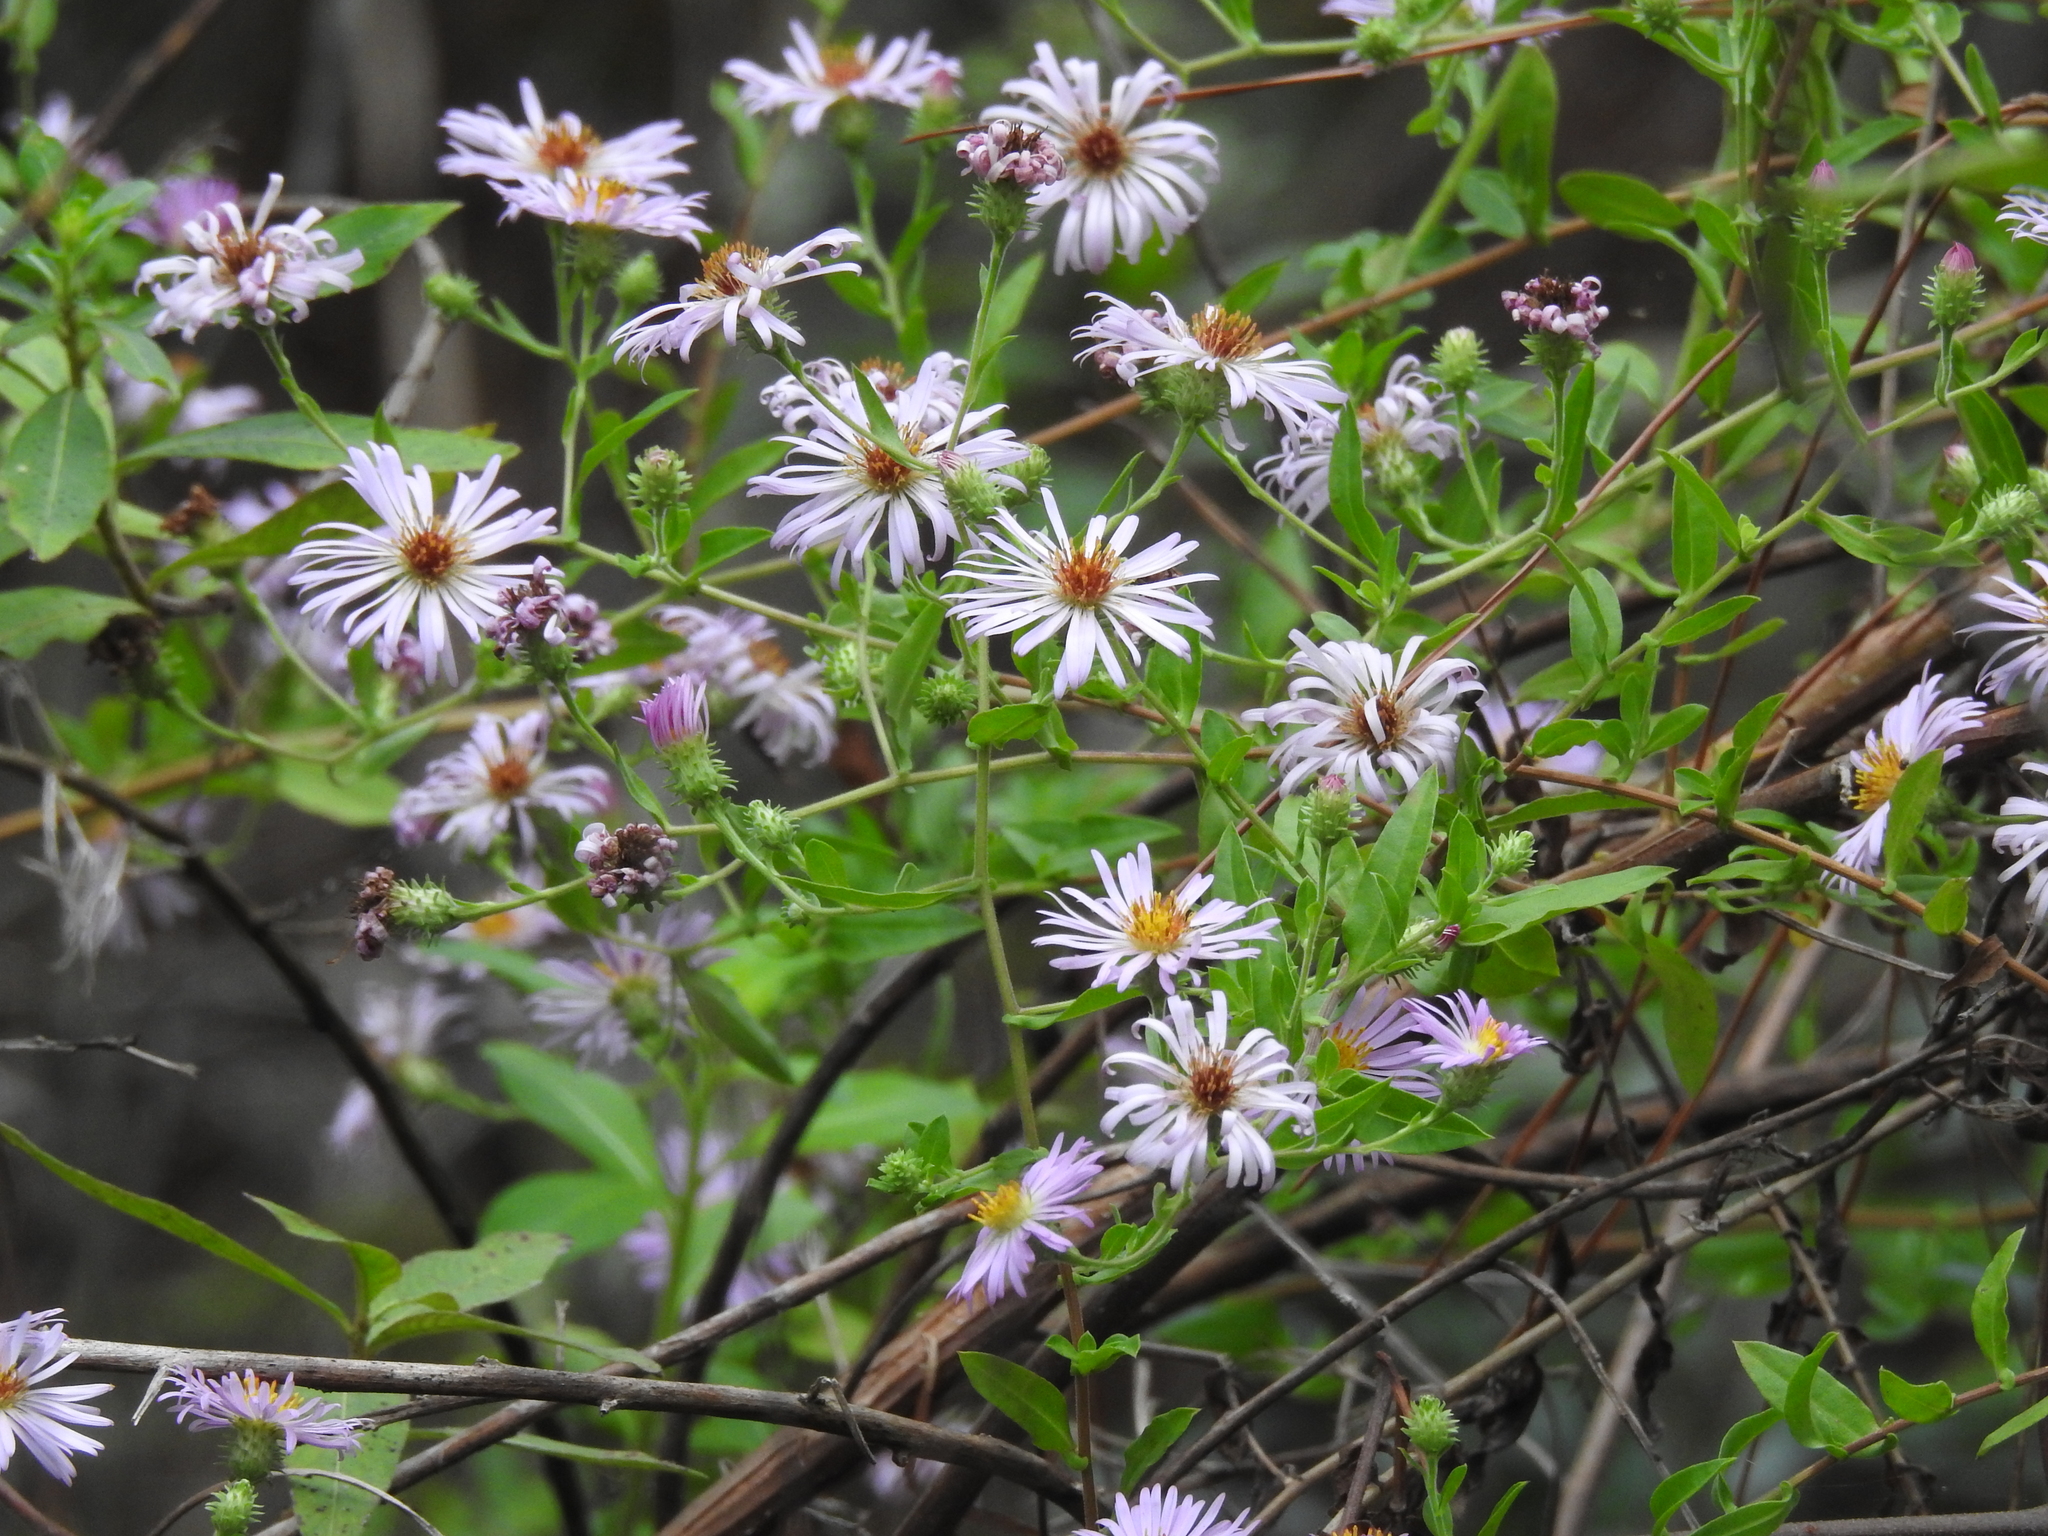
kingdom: Plantae
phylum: Tracheophyta
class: Magnoliopsida
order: Asterales
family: Asteraceae
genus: Ampelaster
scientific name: Ampelaster carolinianus
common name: Climbing aster
